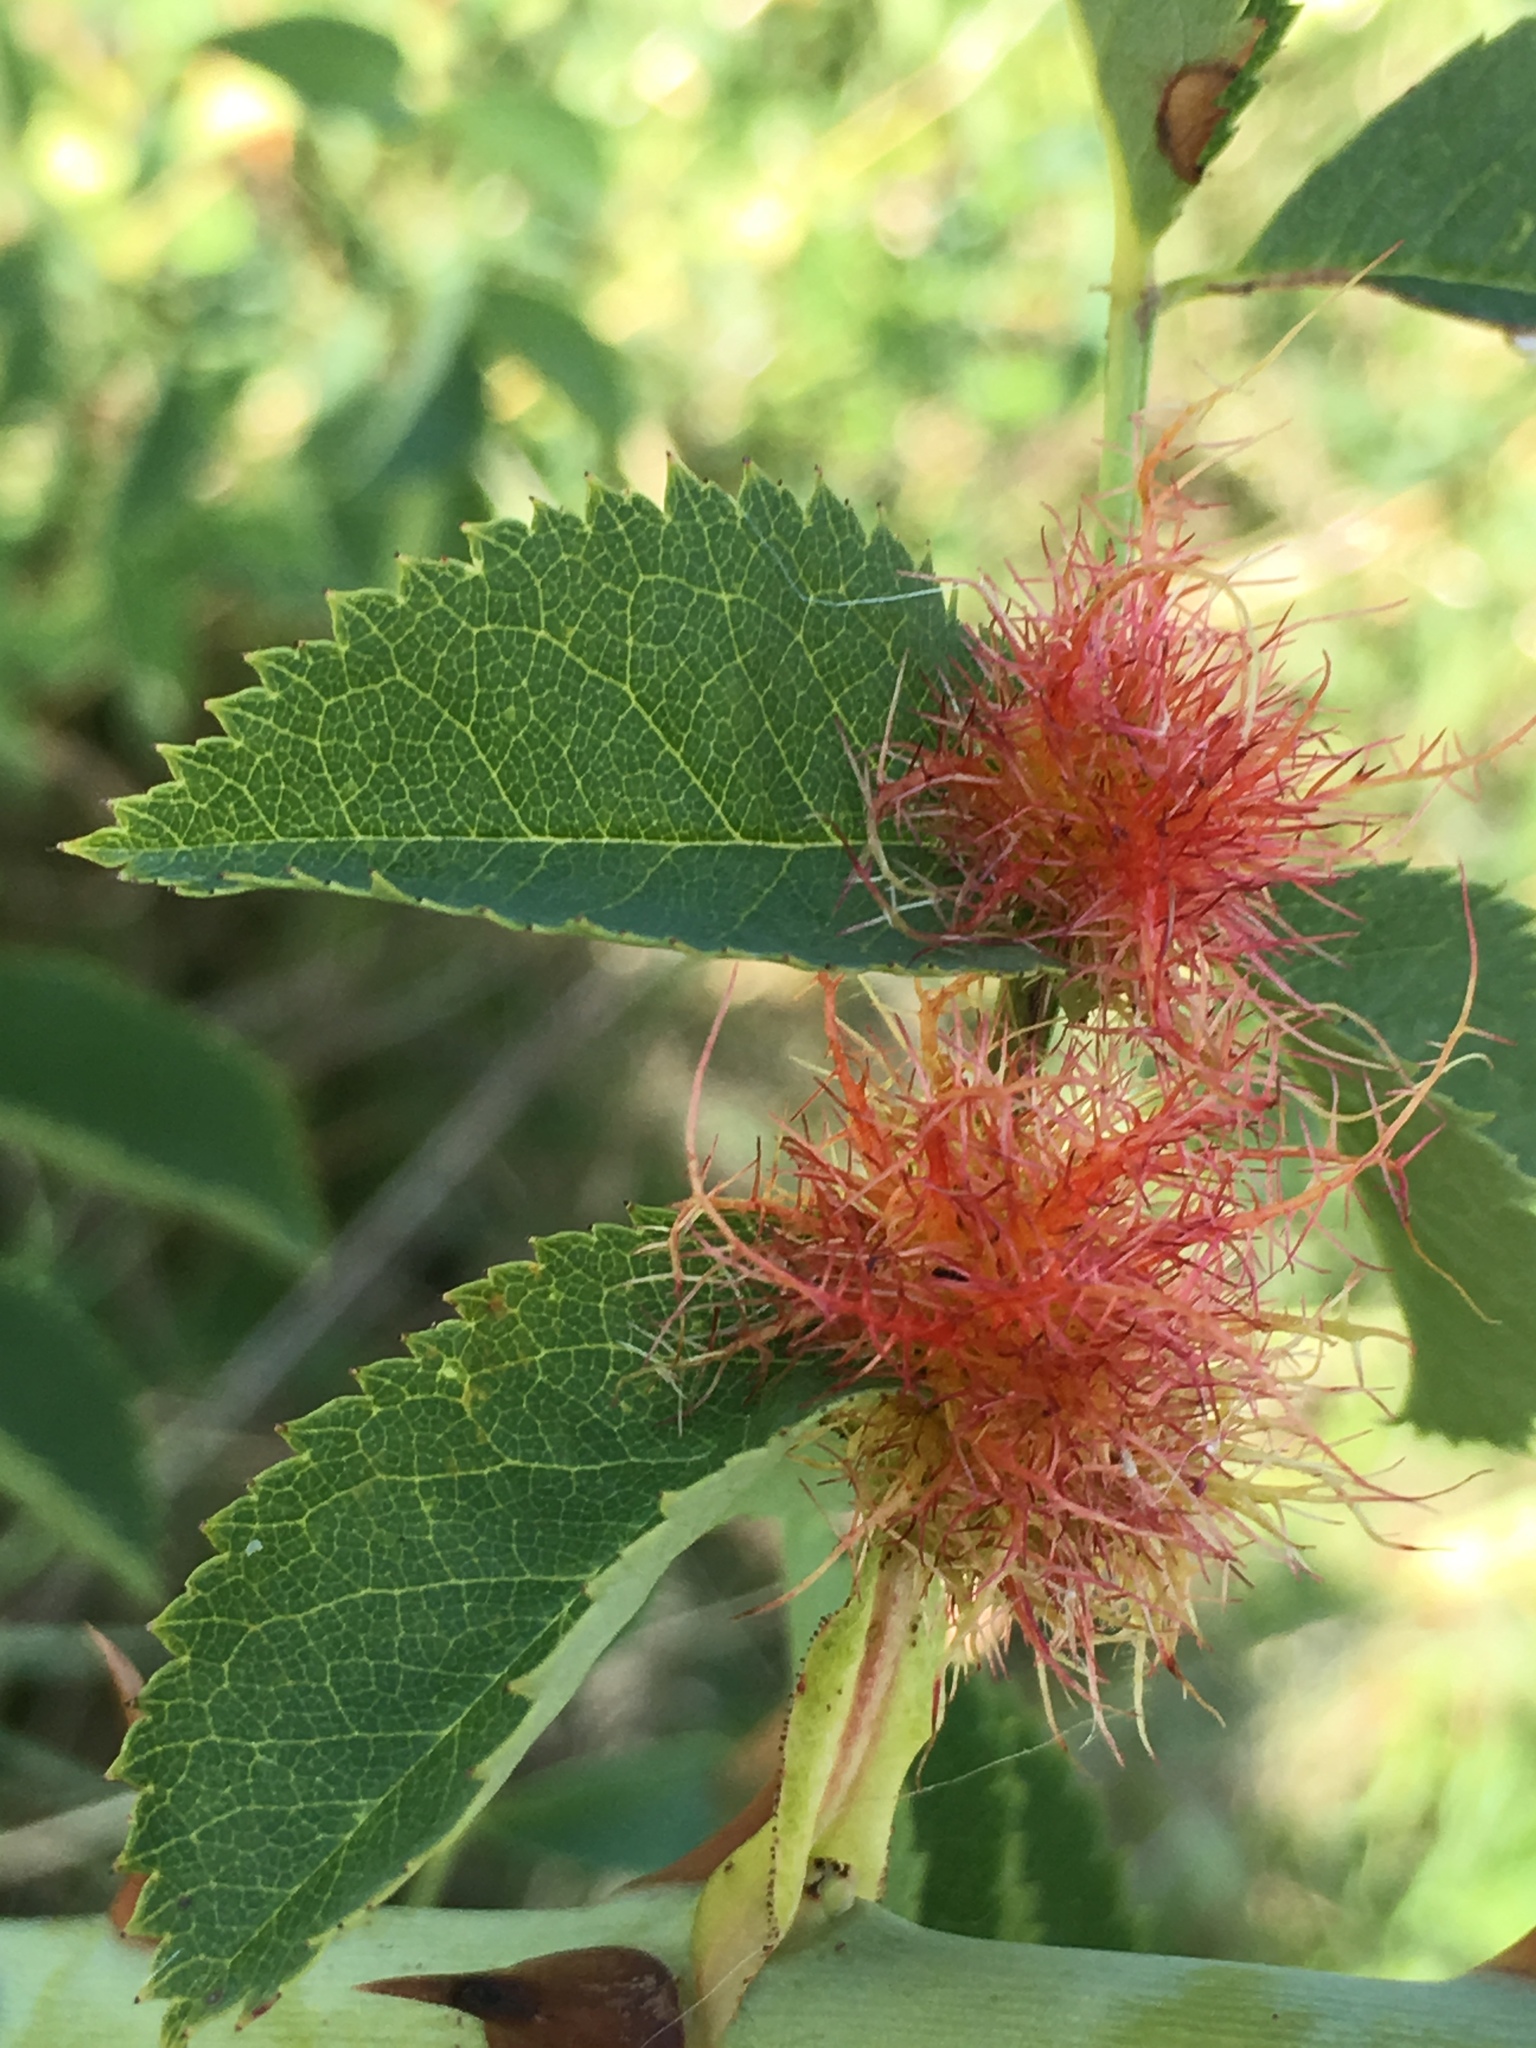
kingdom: Animalia
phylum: Arthropoda
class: Insecta
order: Hymenoptera
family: Cynipidae
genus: Diplolepis
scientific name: Diplolepis rosae
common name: Bedeguar gall
